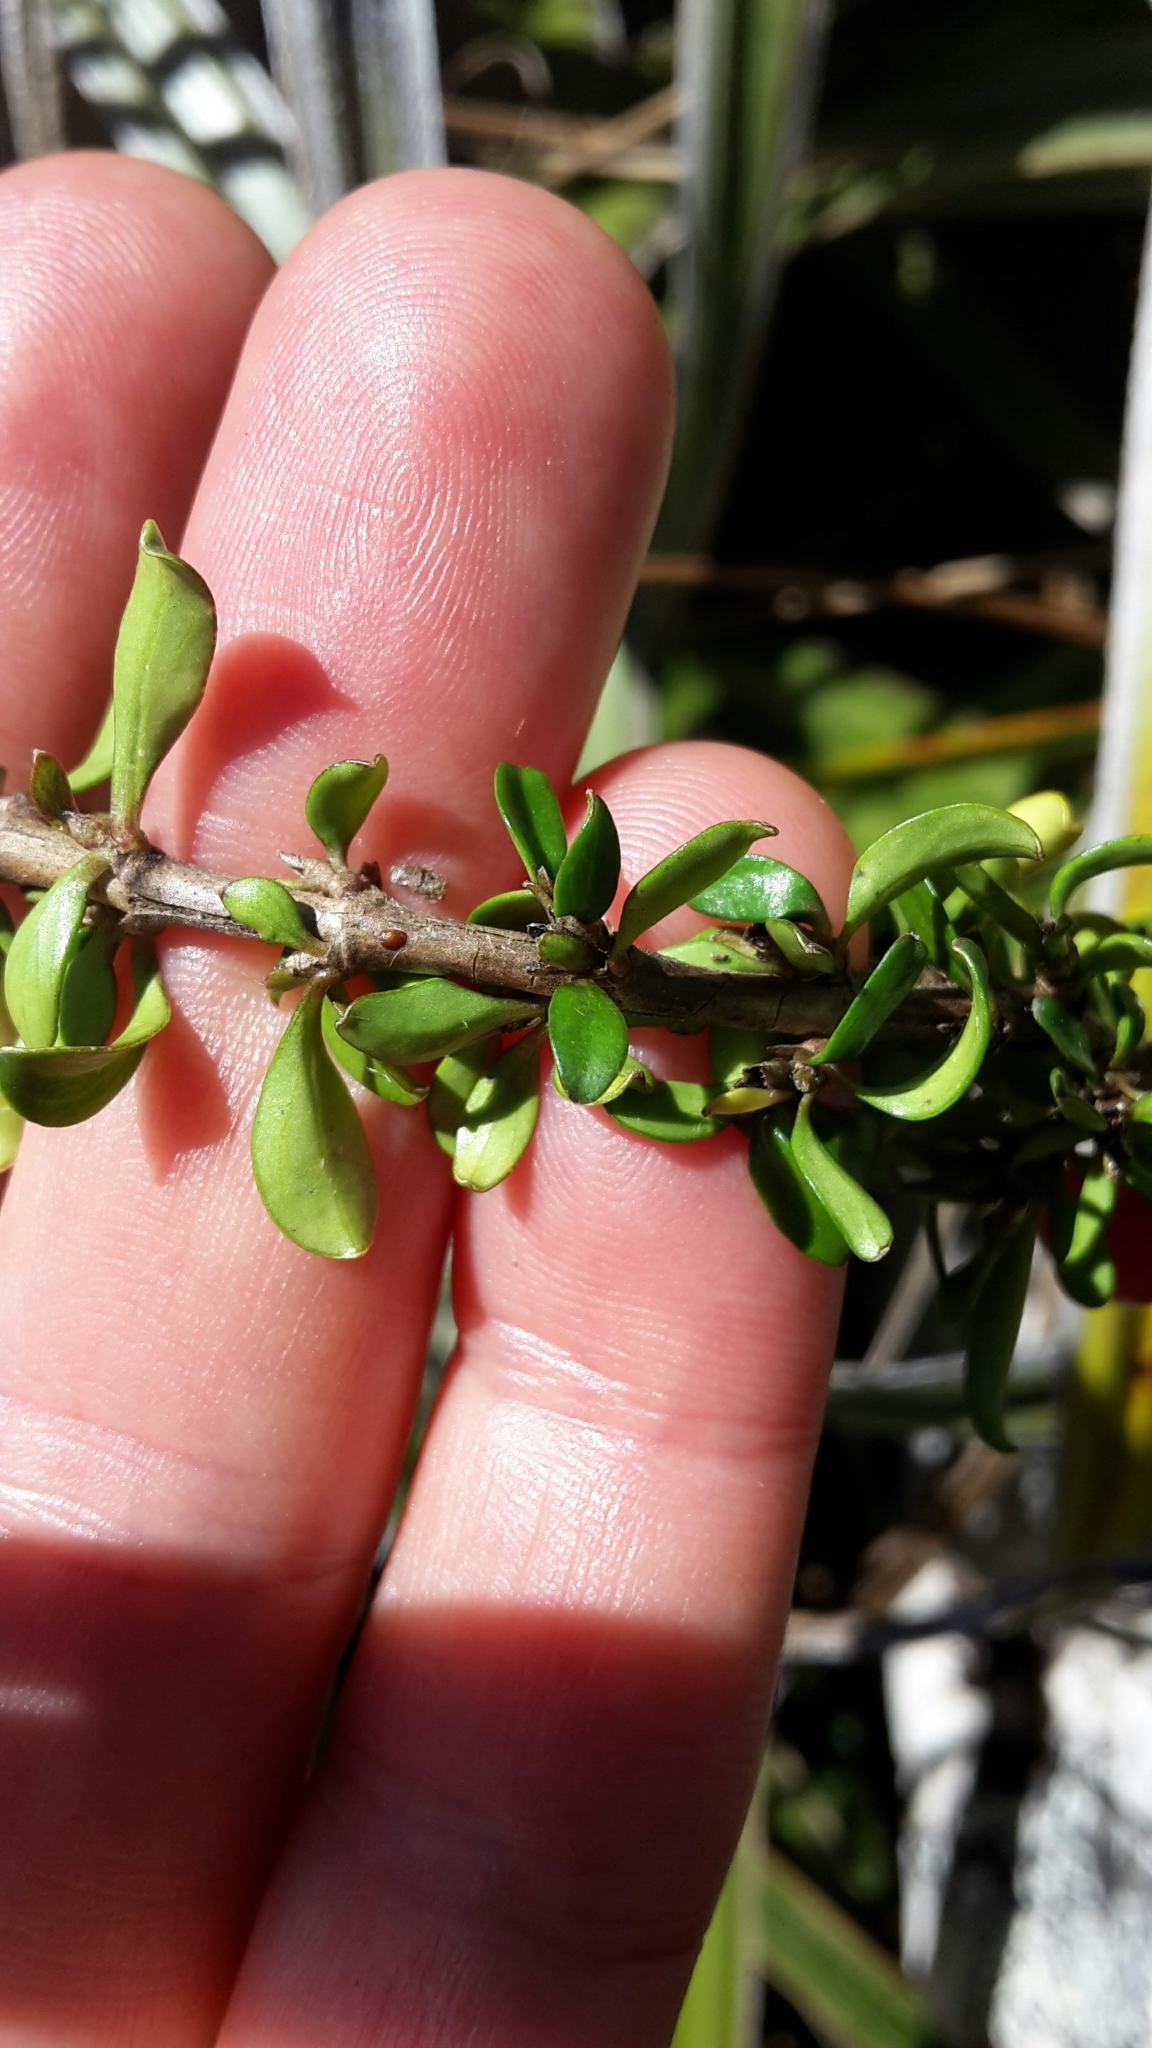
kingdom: Plantae
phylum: Tracheophyta
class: Magnoliopsida
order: Gentianales
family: Rubiaceae
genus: Coprosma
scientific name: Coprosma depressa
